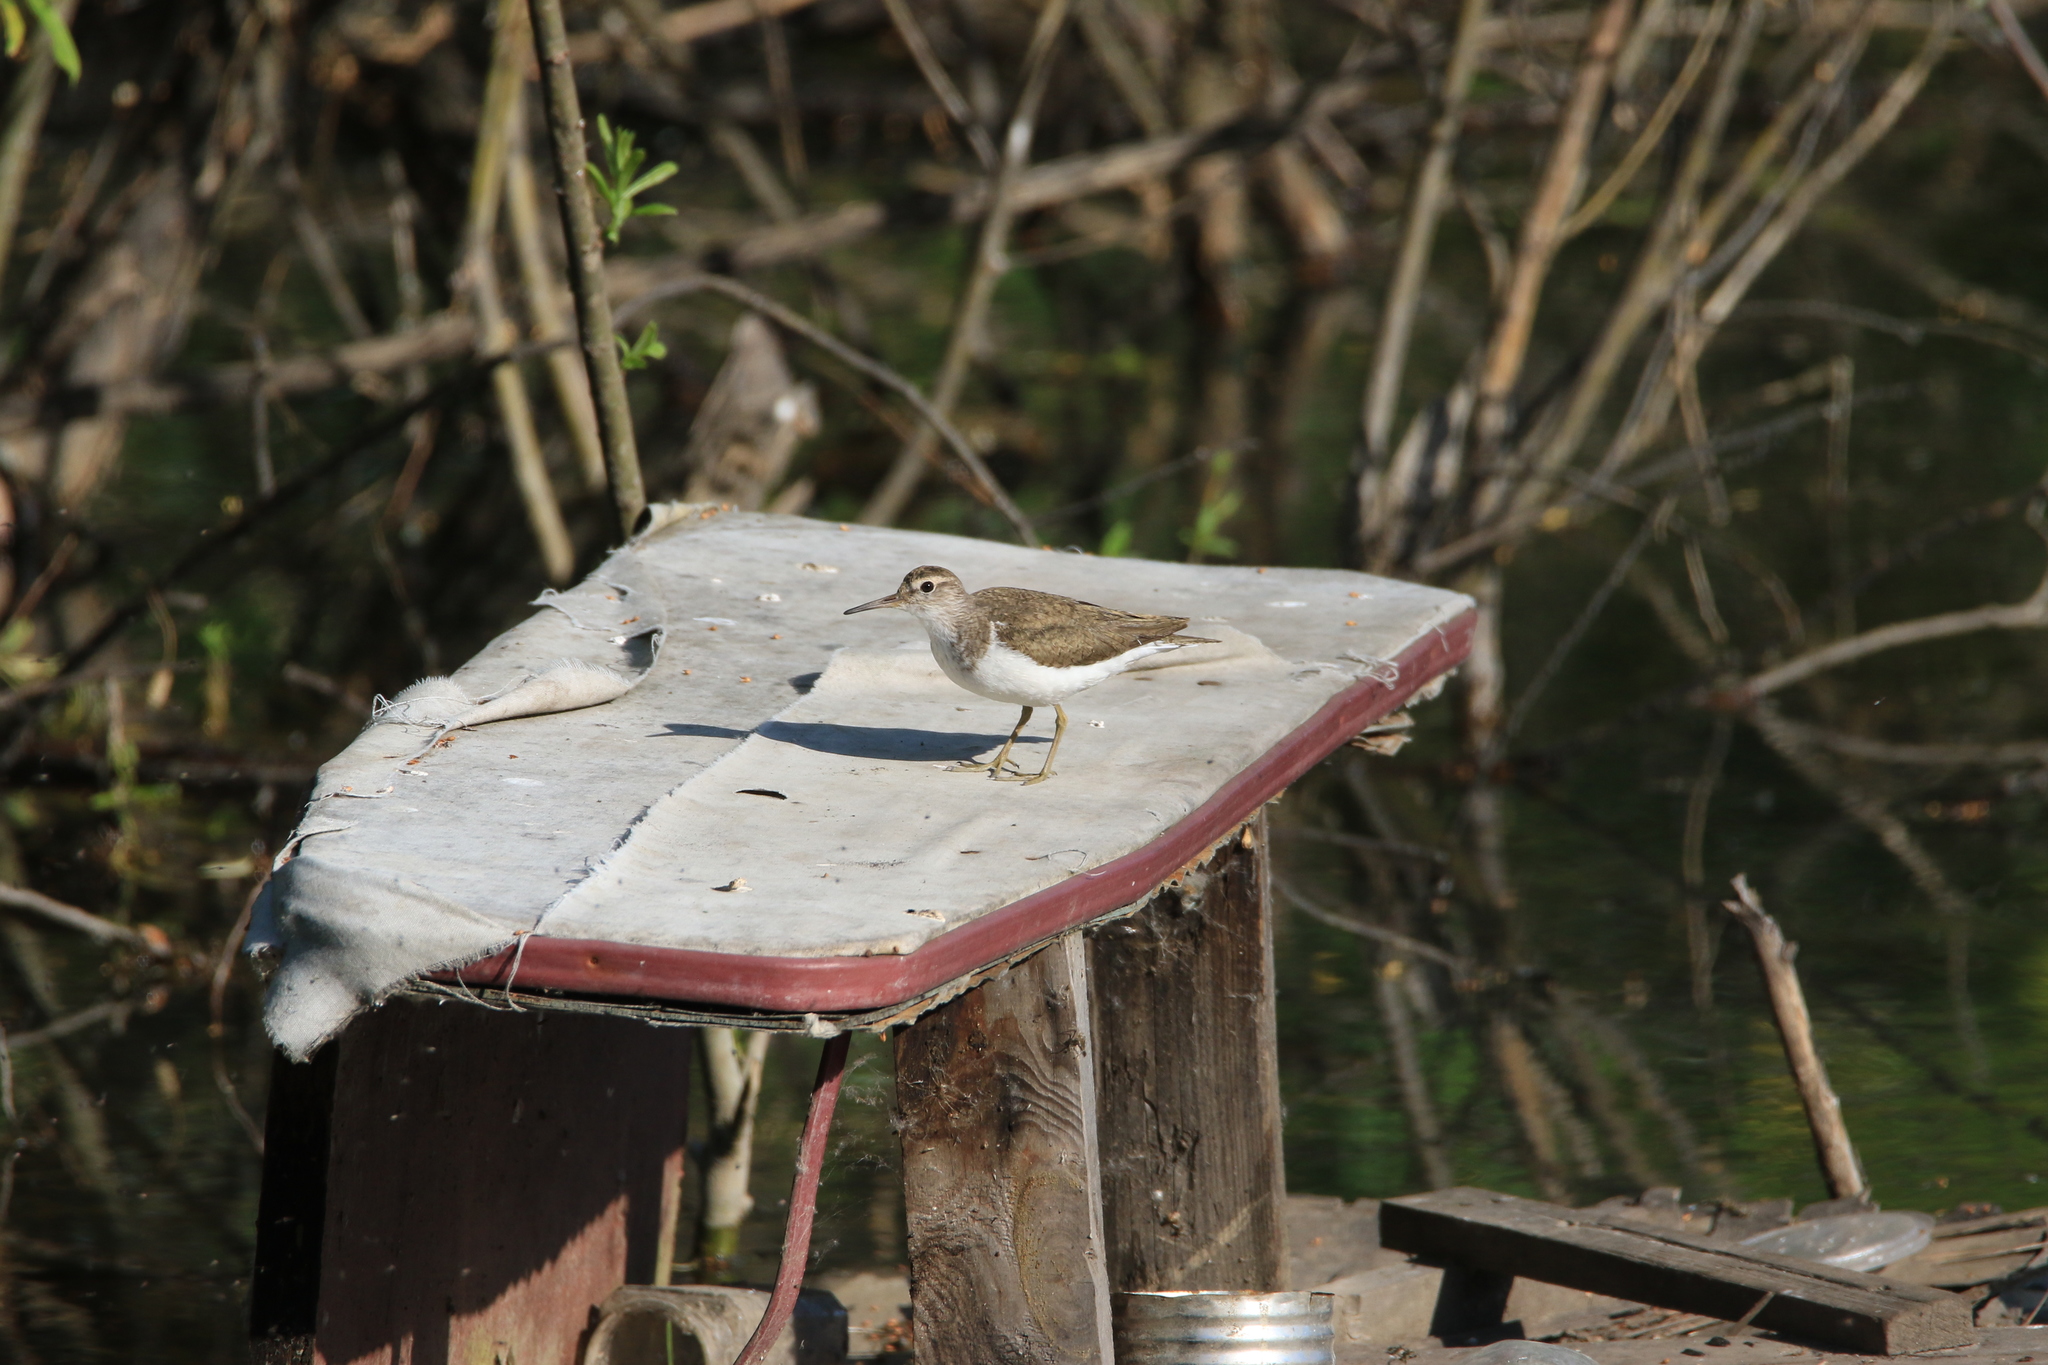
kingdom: Animalia
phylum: Chordata
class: Aves
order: Charadriiformes
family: Scolopacidae
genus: Actitis
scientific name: Actitis hypoleucos
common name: Common sandpiper
